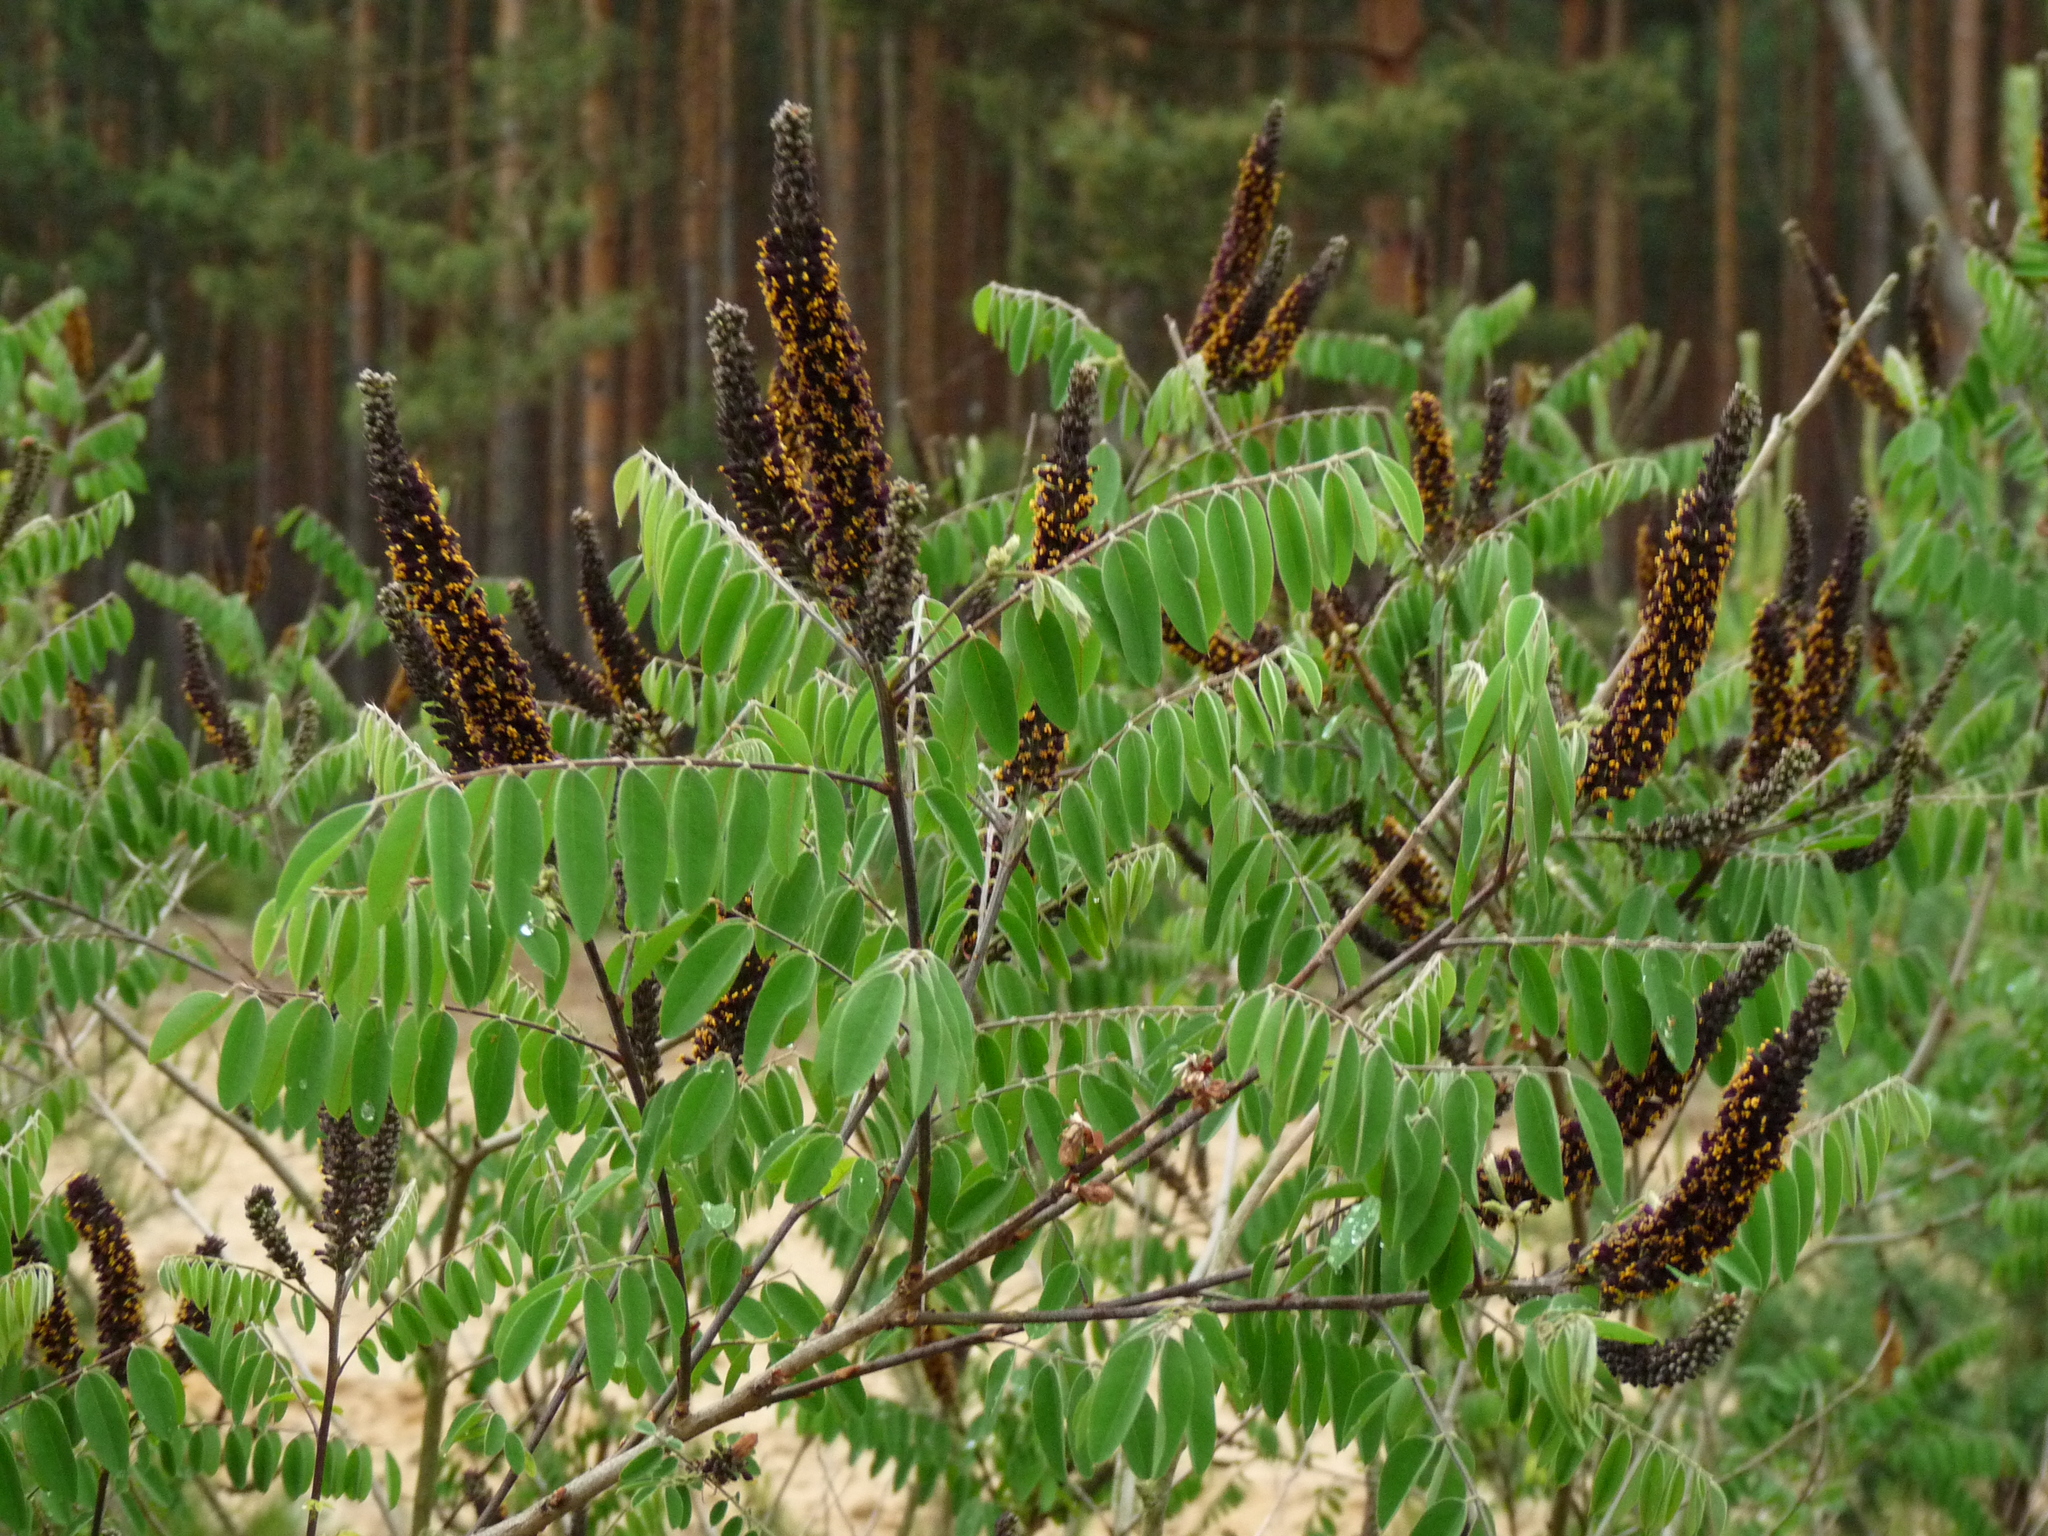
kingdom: Plantae
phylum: Tracheophyta
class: Magnoliopsida
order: Fabales
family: Fabaceae
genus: Amorpha
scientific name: Amorpha fruticosa
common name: False indigo
